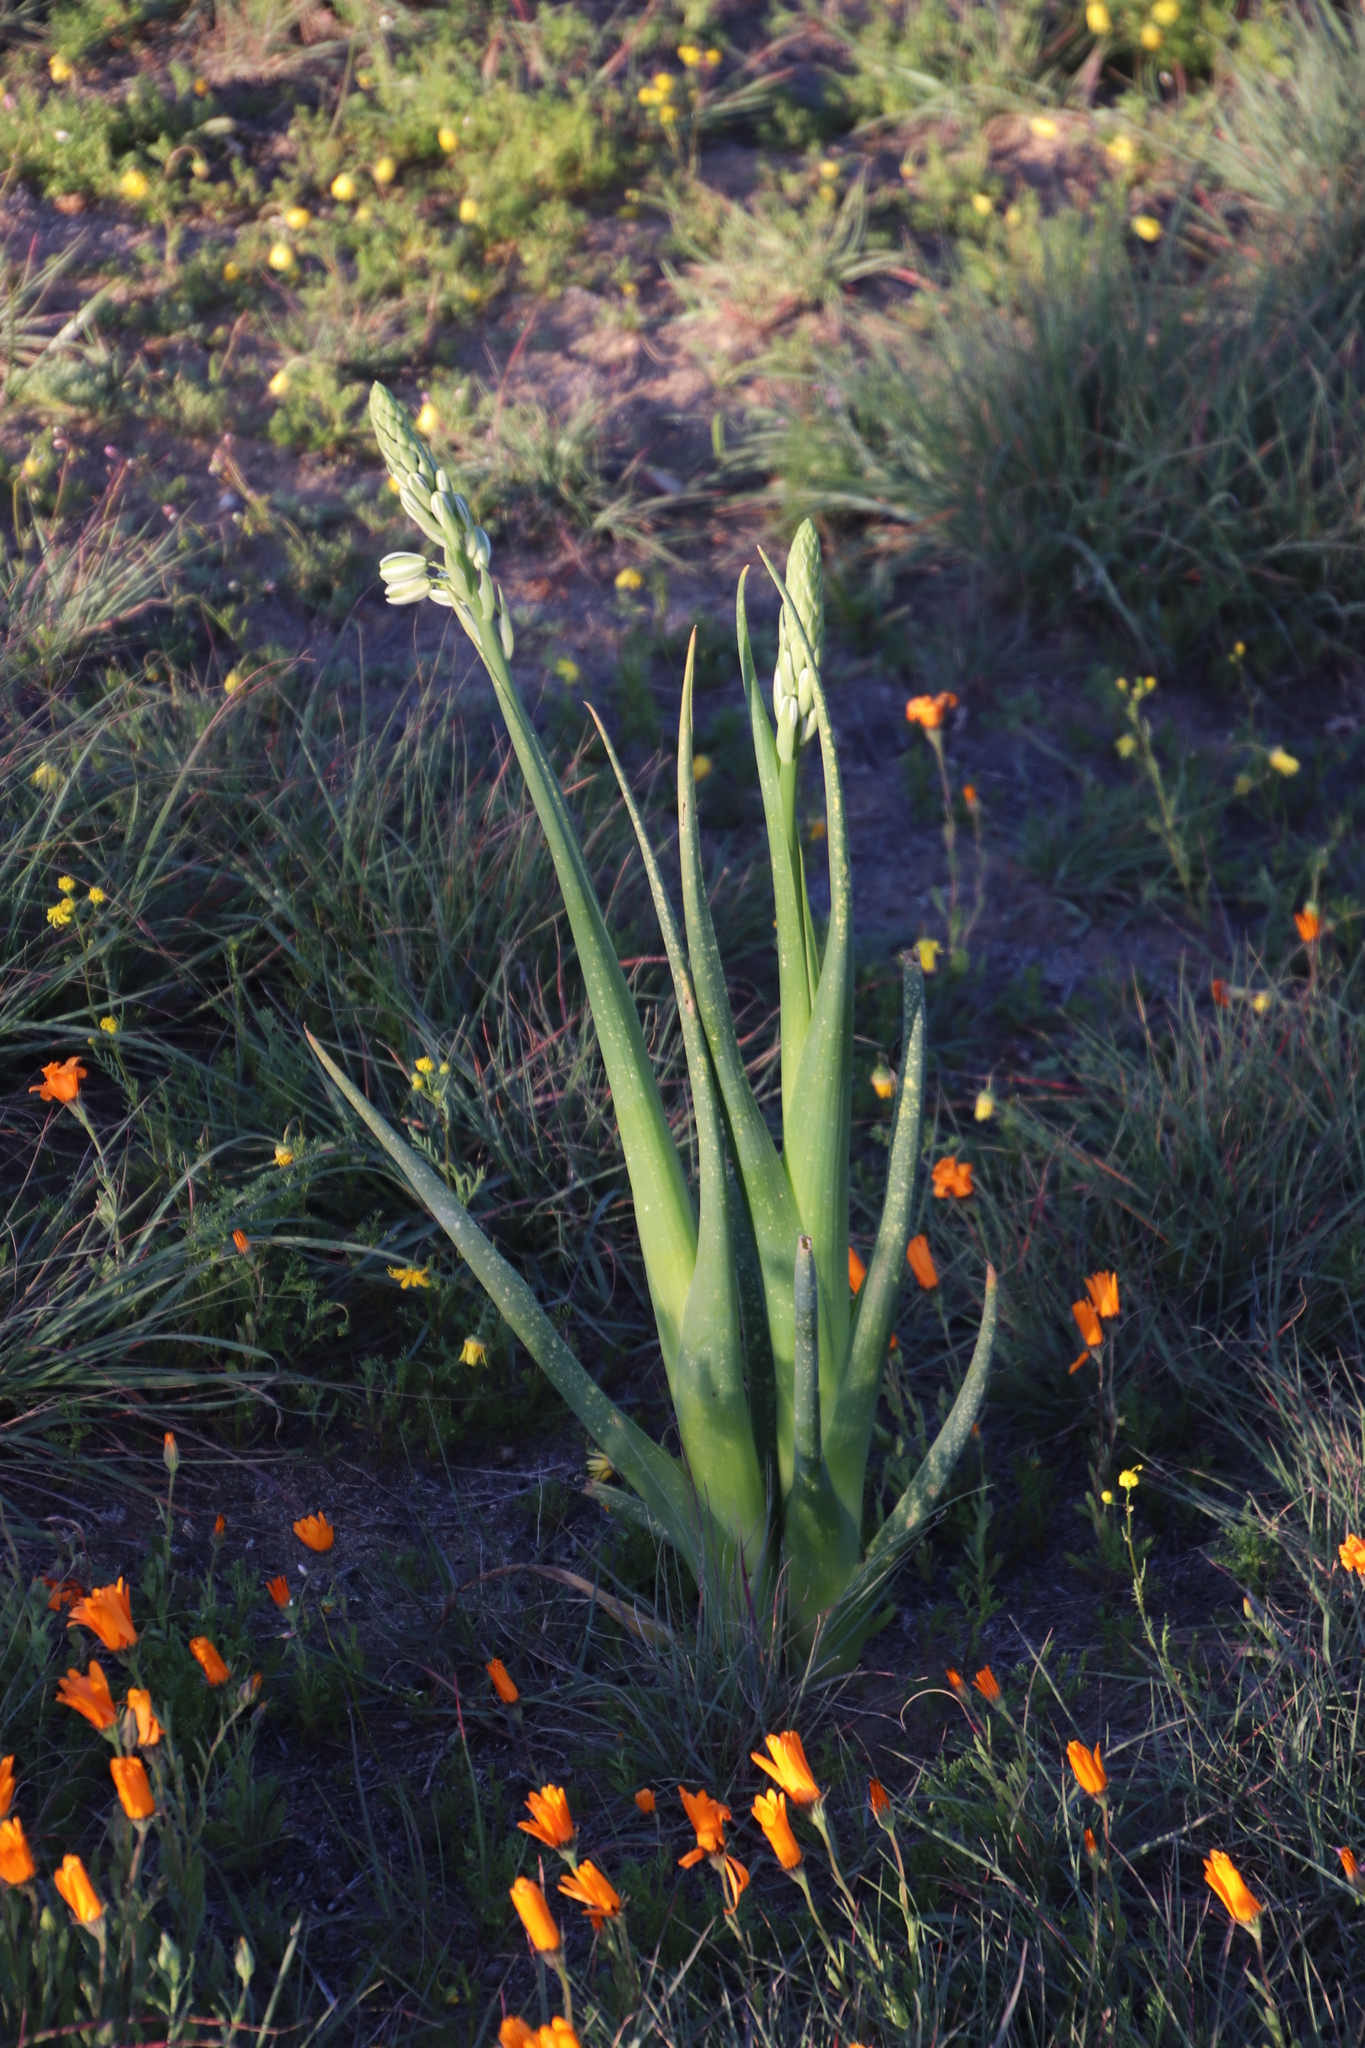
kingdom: Plantae
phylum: Tracheophyta
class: Liliopsida
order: Asparagales
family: Asparagaceae
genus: Albuca
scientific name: Albuca canadensis
